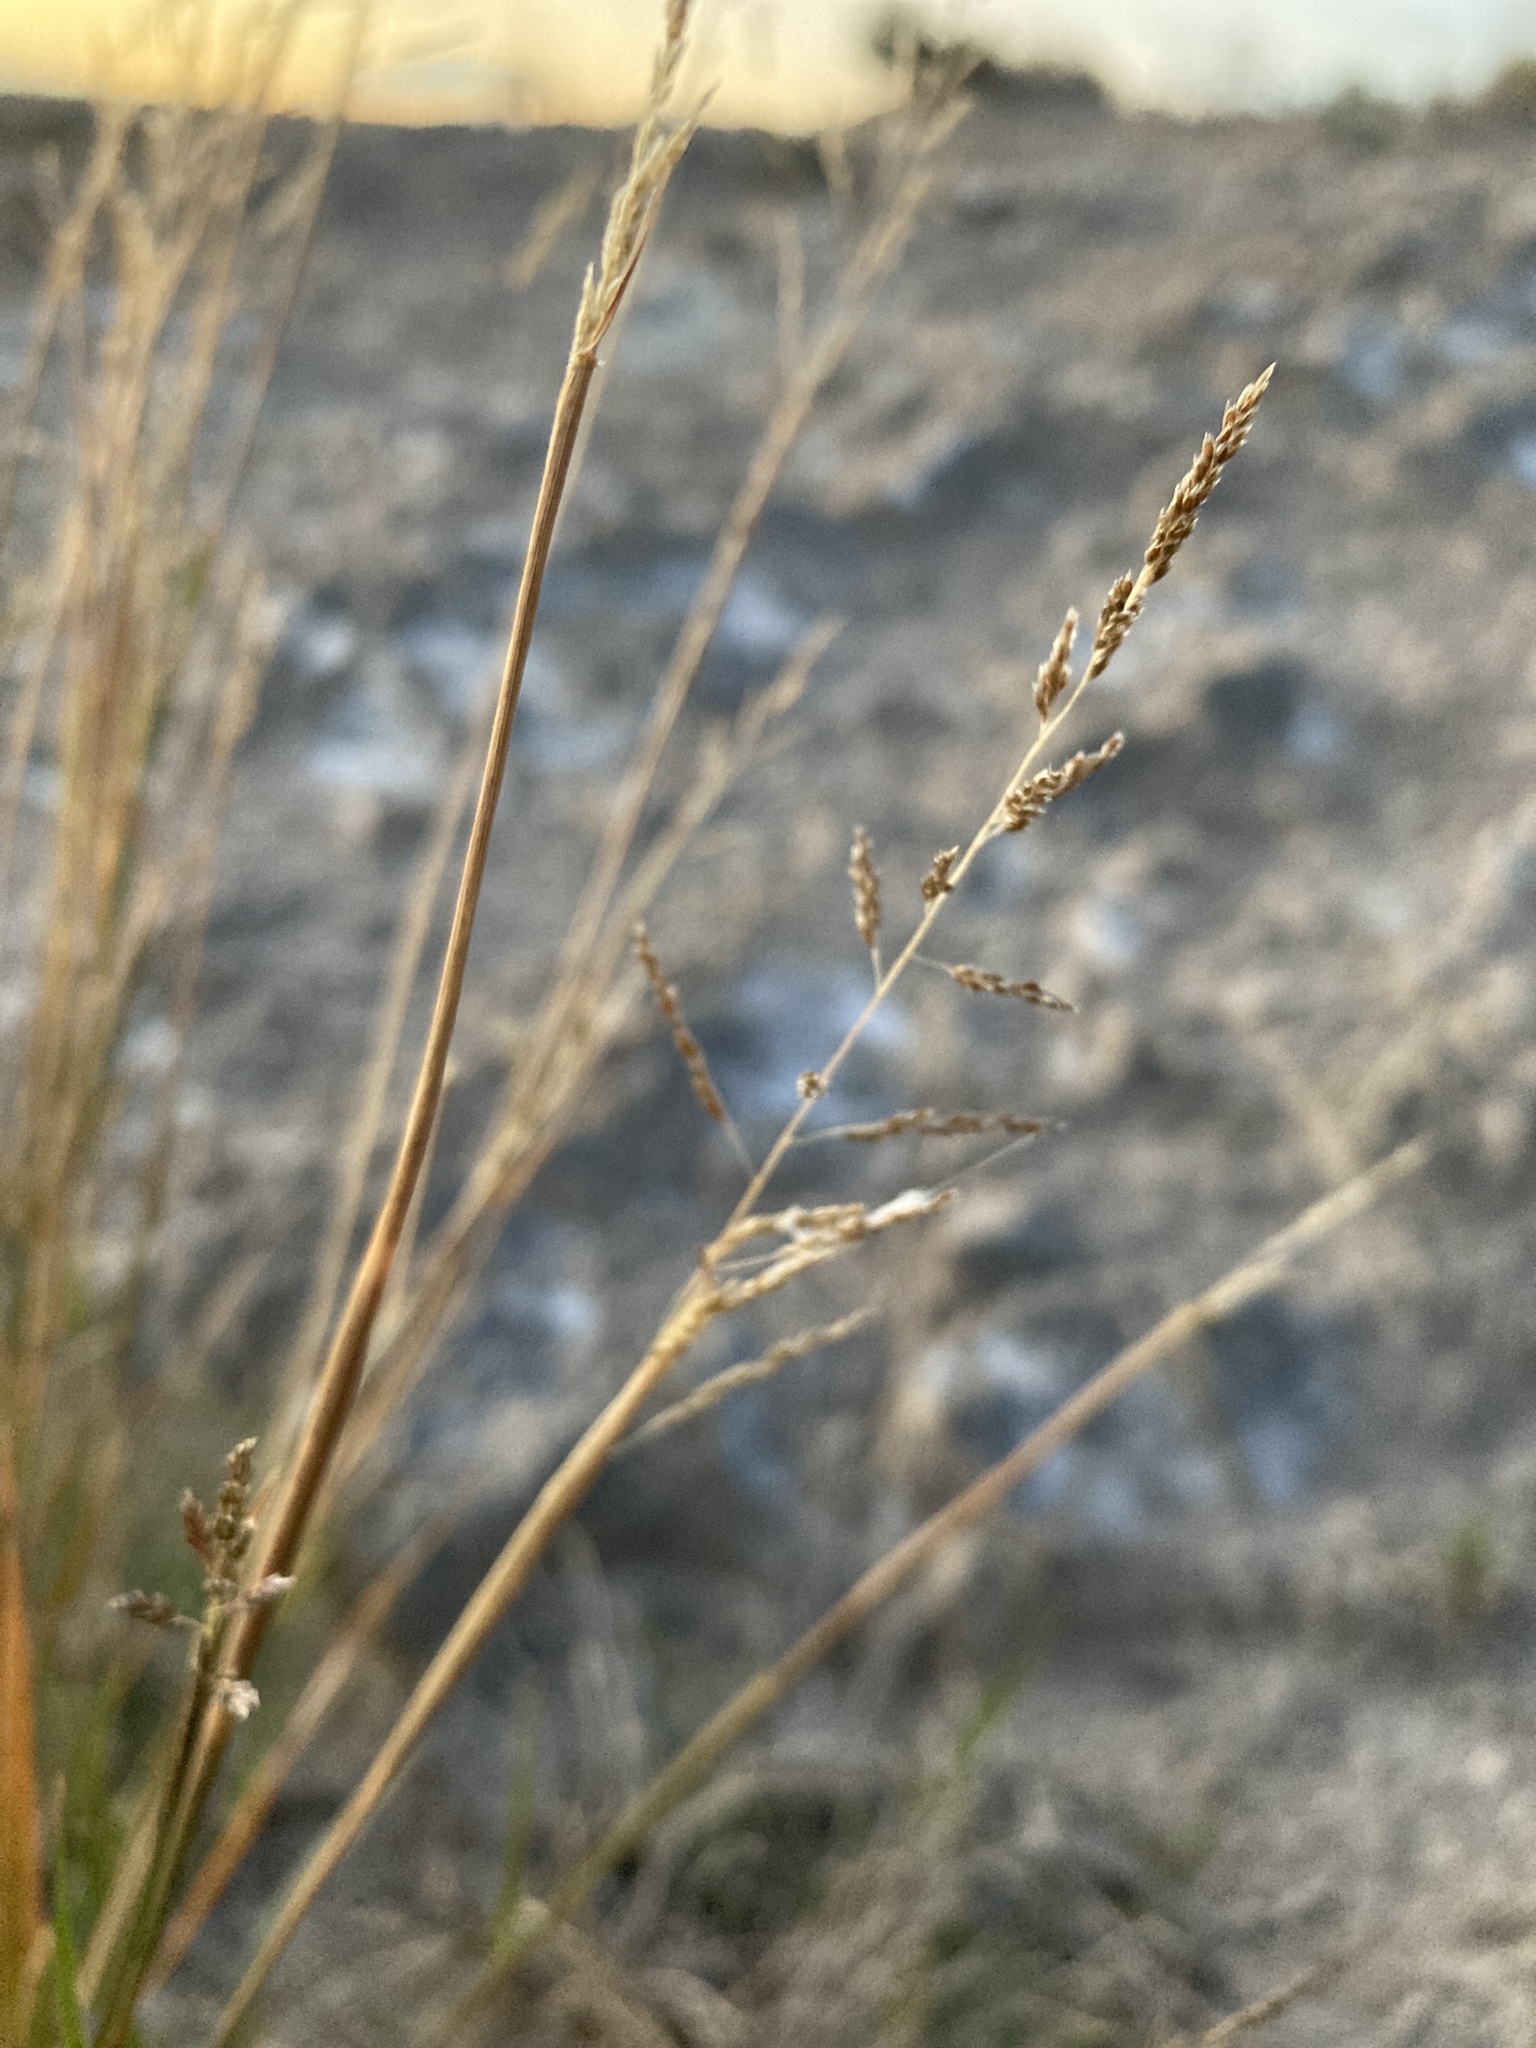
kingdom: Plantae
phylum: Tracheophyta
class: Liliopsida
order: Poales
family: Poaceae
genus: Sporobolus
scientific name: Sporobolus cryptandrus
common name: Sand dropseed
